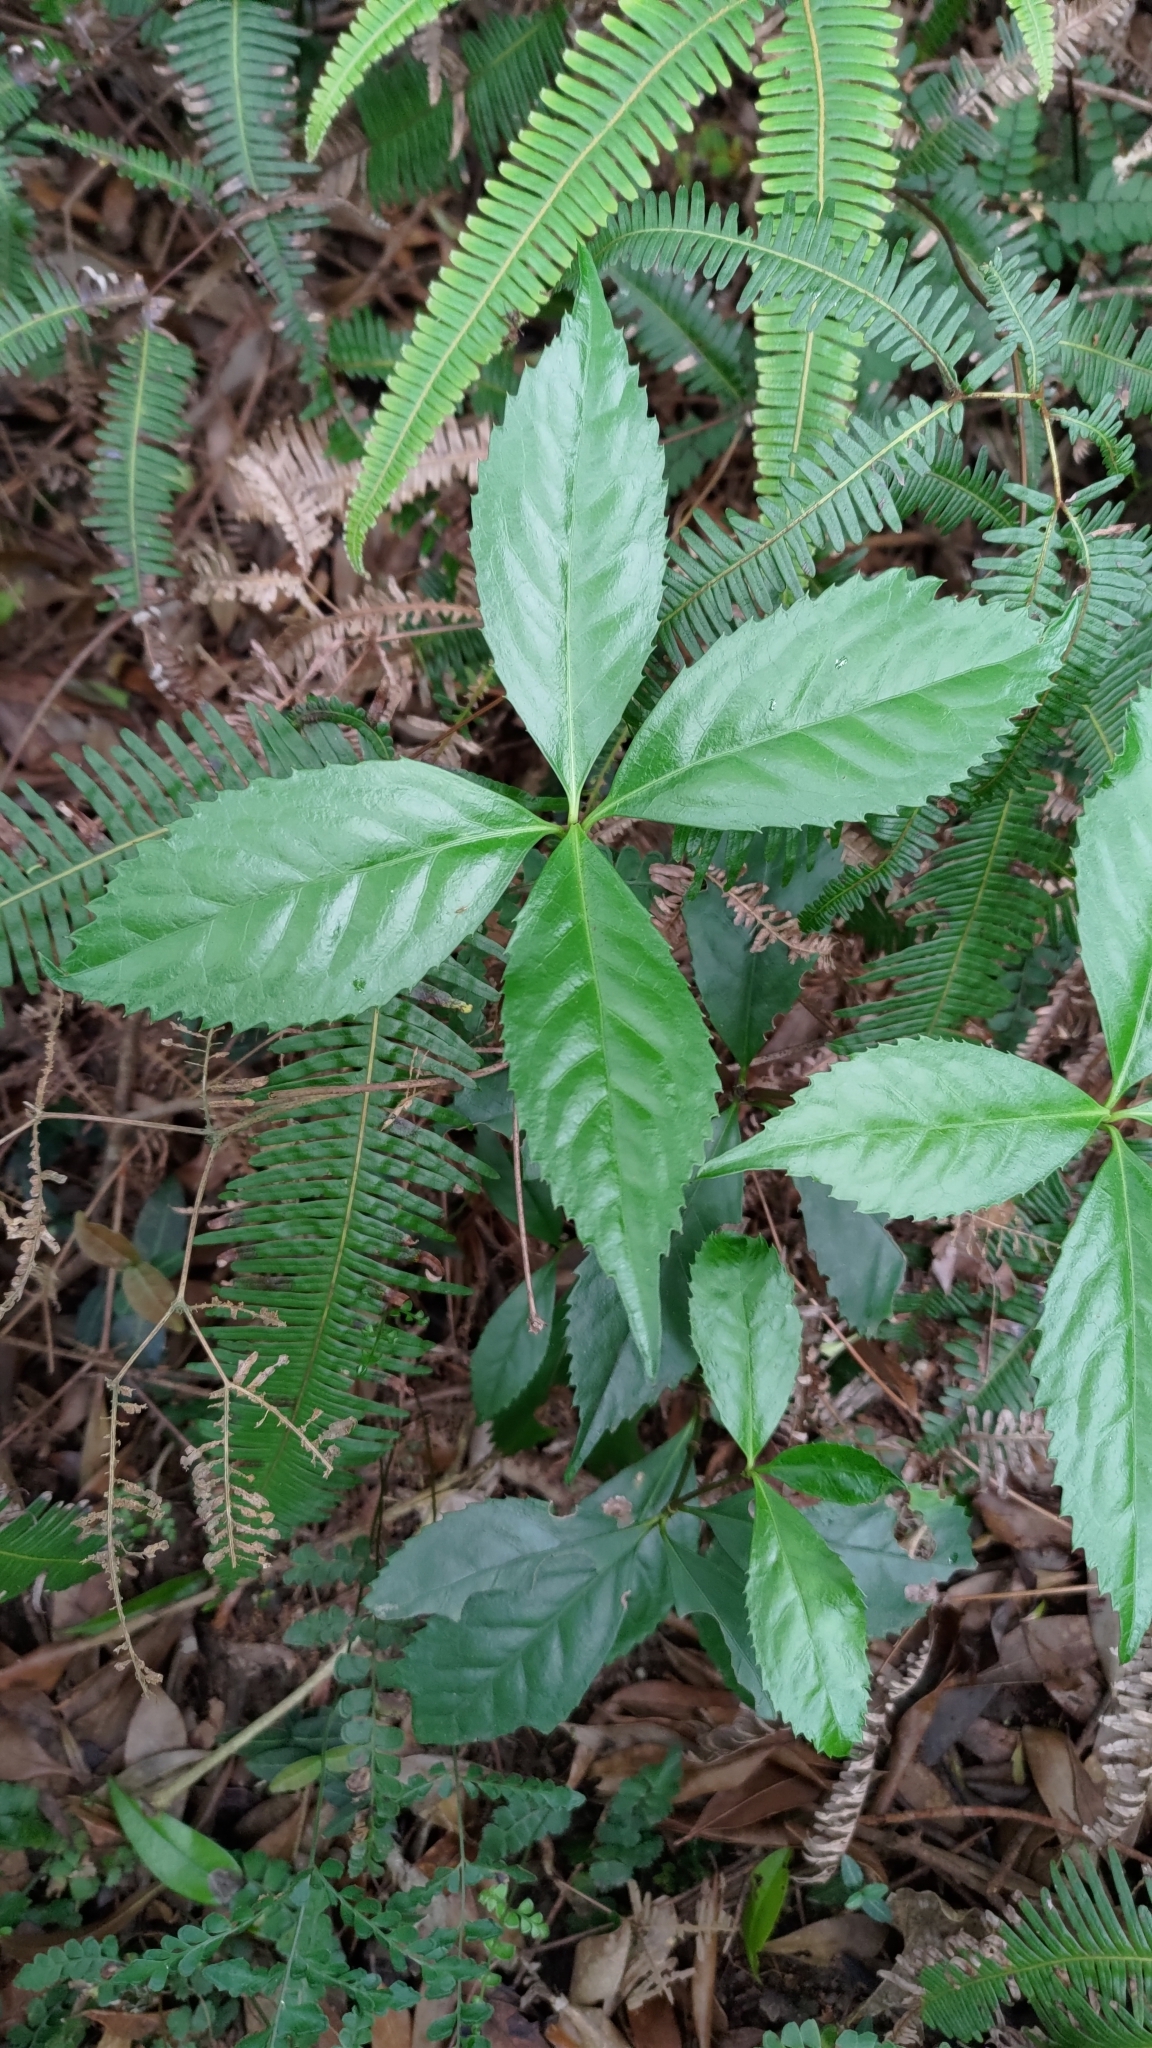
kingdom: Plantae
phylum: Tracheophyta
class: Magnoliopsida
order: Chloranthales
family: Chloranthaceae
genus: Sarcandra
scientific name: Sarcandra glabra
